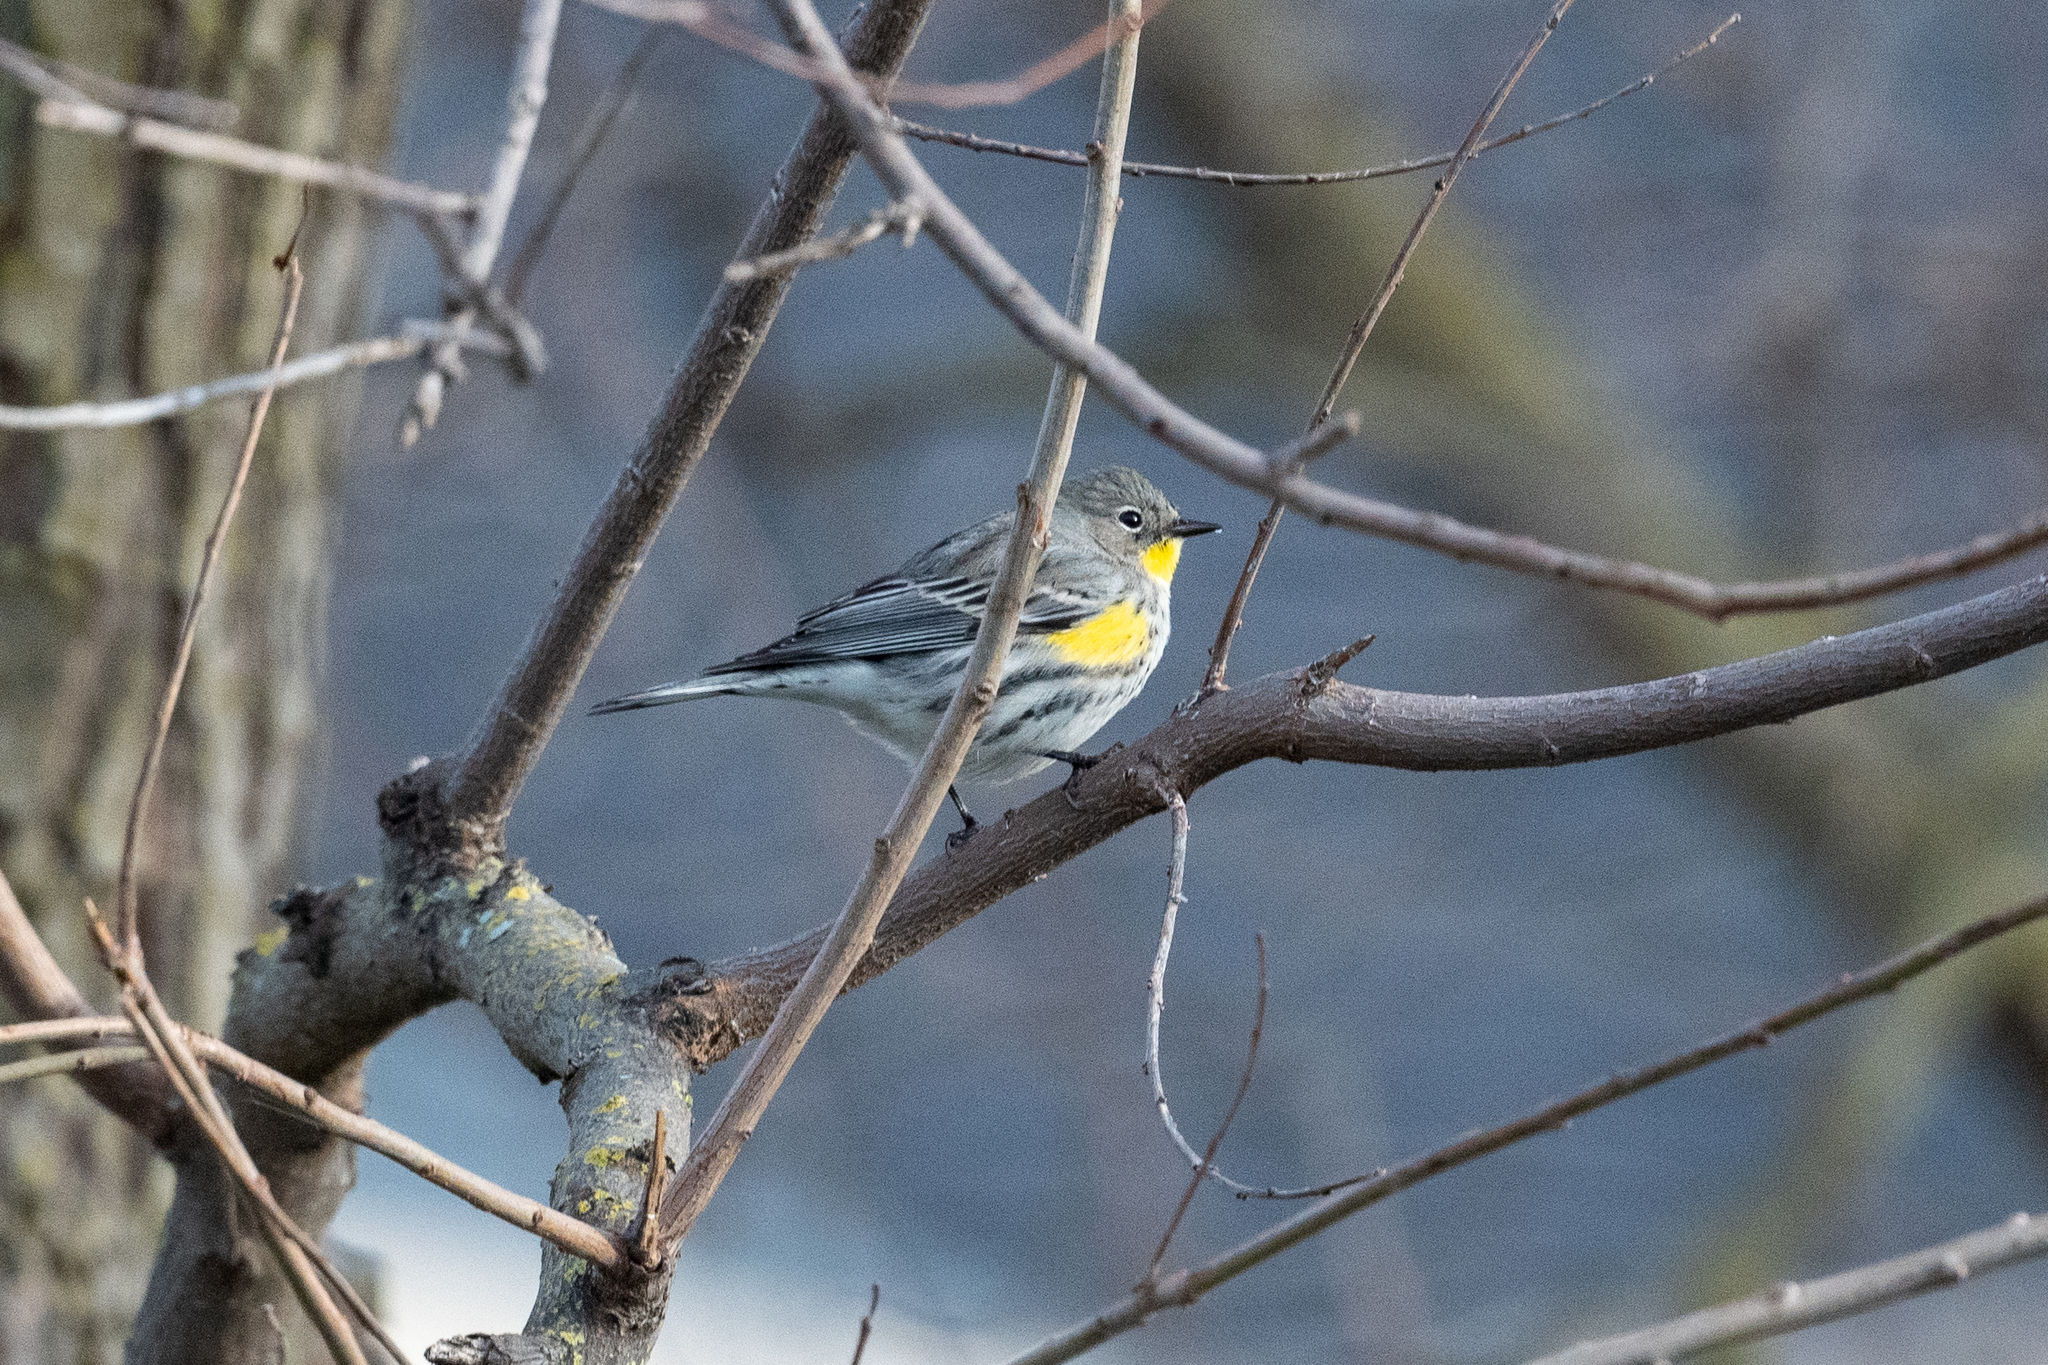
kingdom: Animalia
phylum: Chordata
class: Aves
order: Passeriformes
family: Parulidae
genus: Setophaga
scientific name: Setophaga coronata
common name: Myrtle warbler
